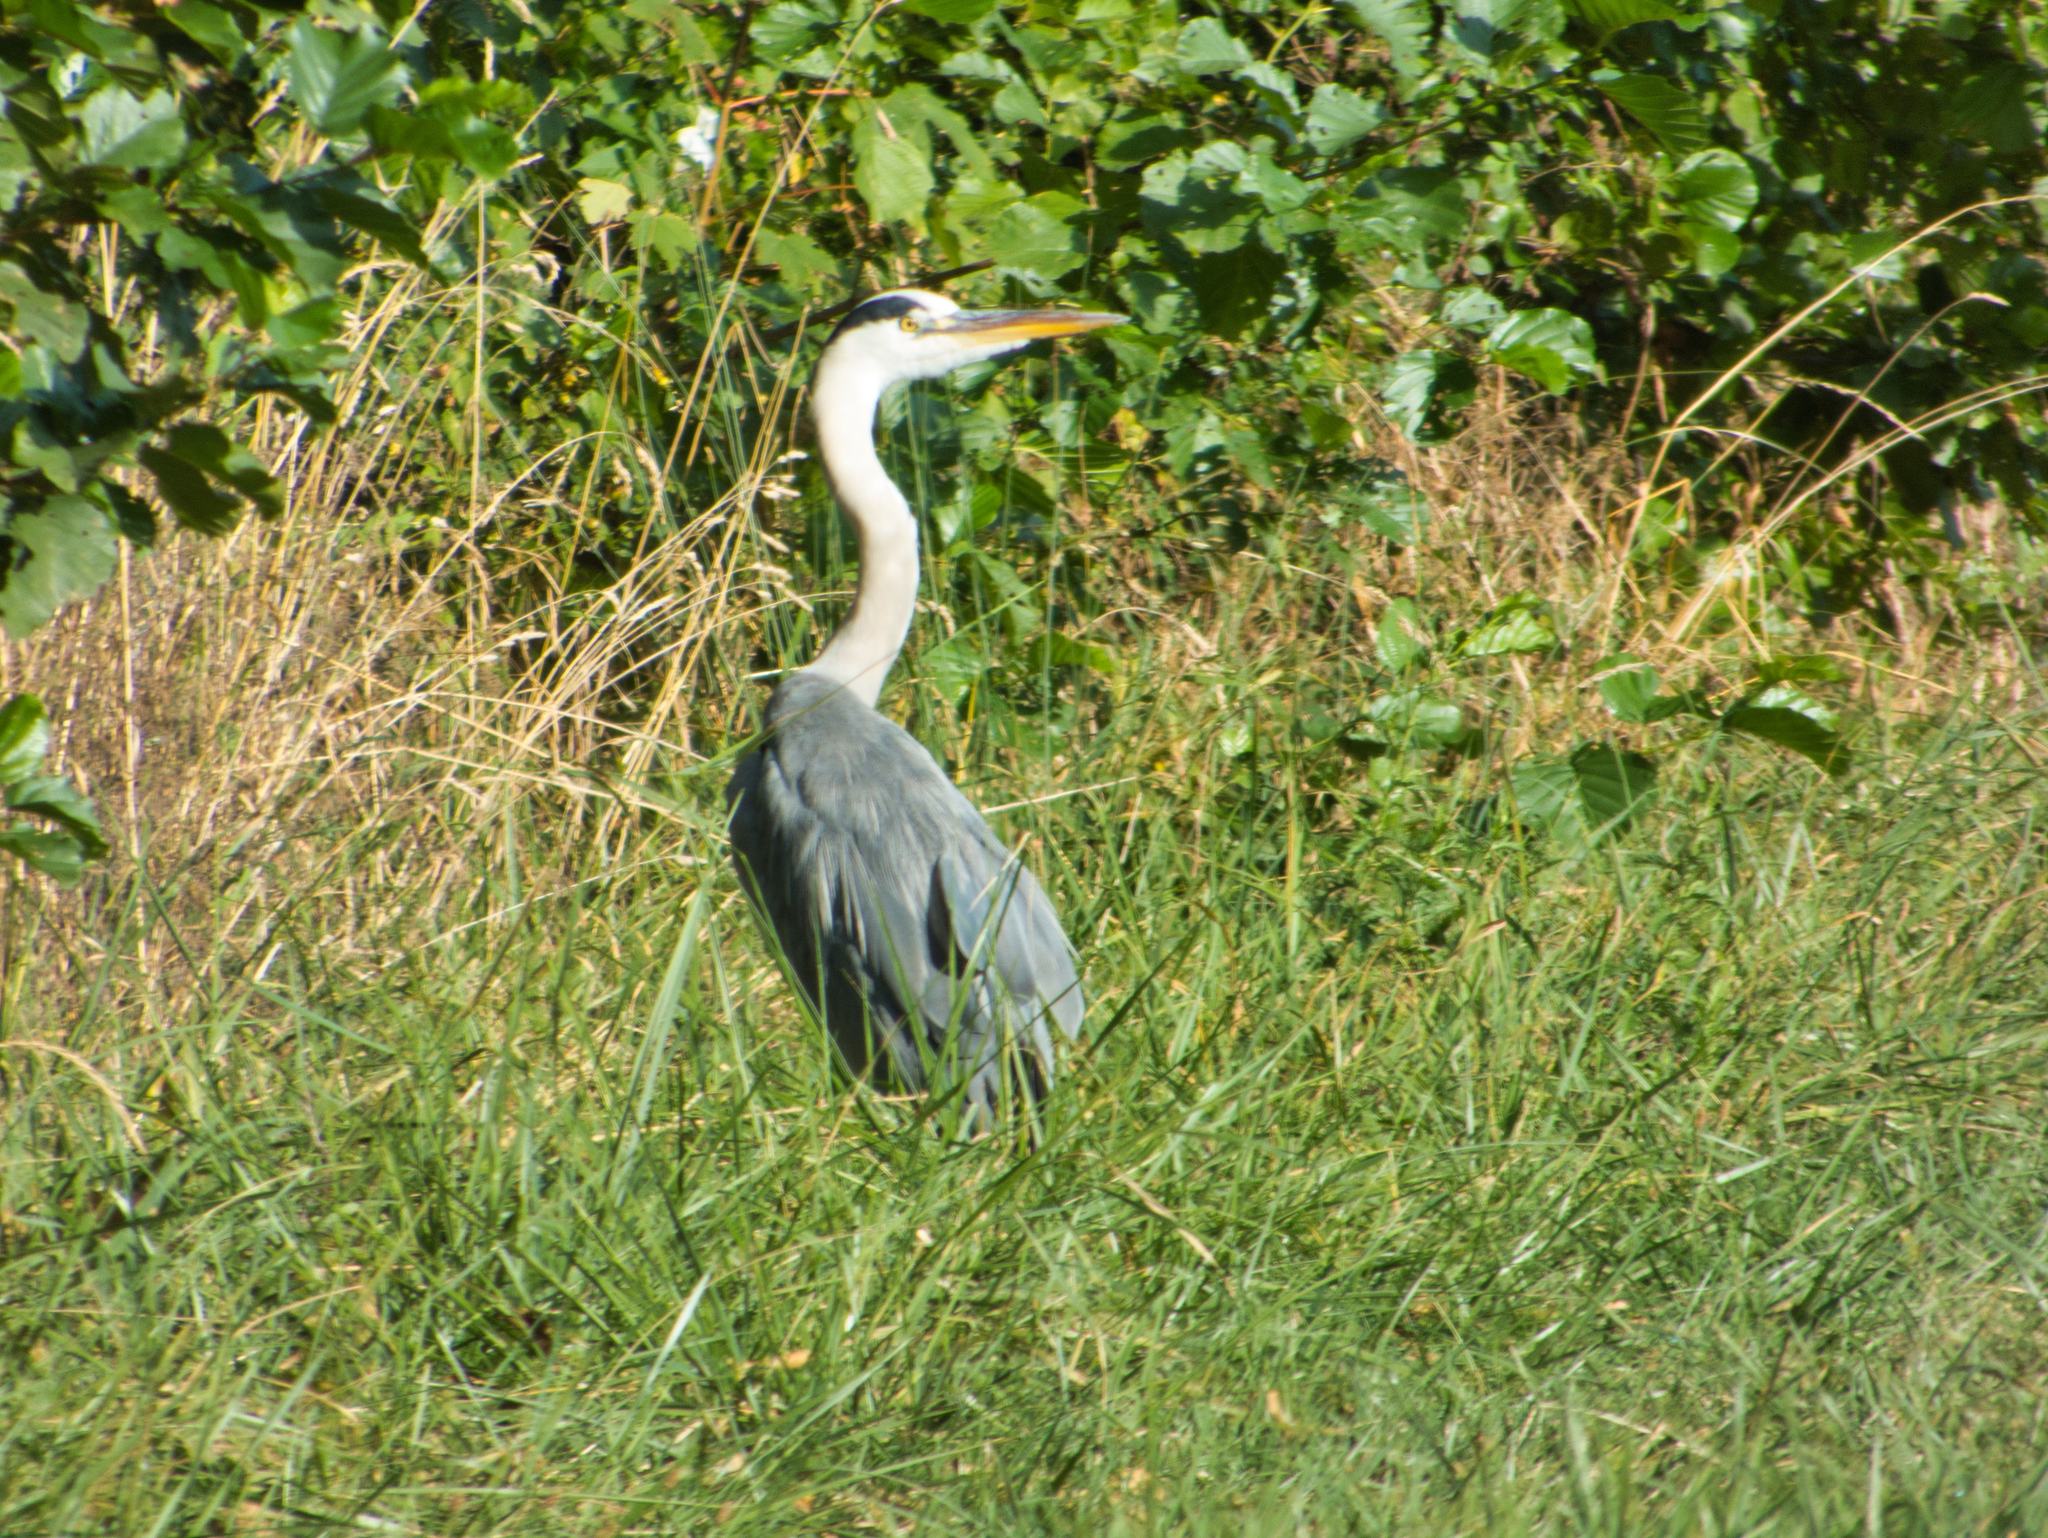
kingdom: Animalia
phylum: Chordata
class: Aves
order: Pelecaniformes
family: Ardeidae
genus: Ardea
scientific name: Ardea cinerea
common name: Grey heron
